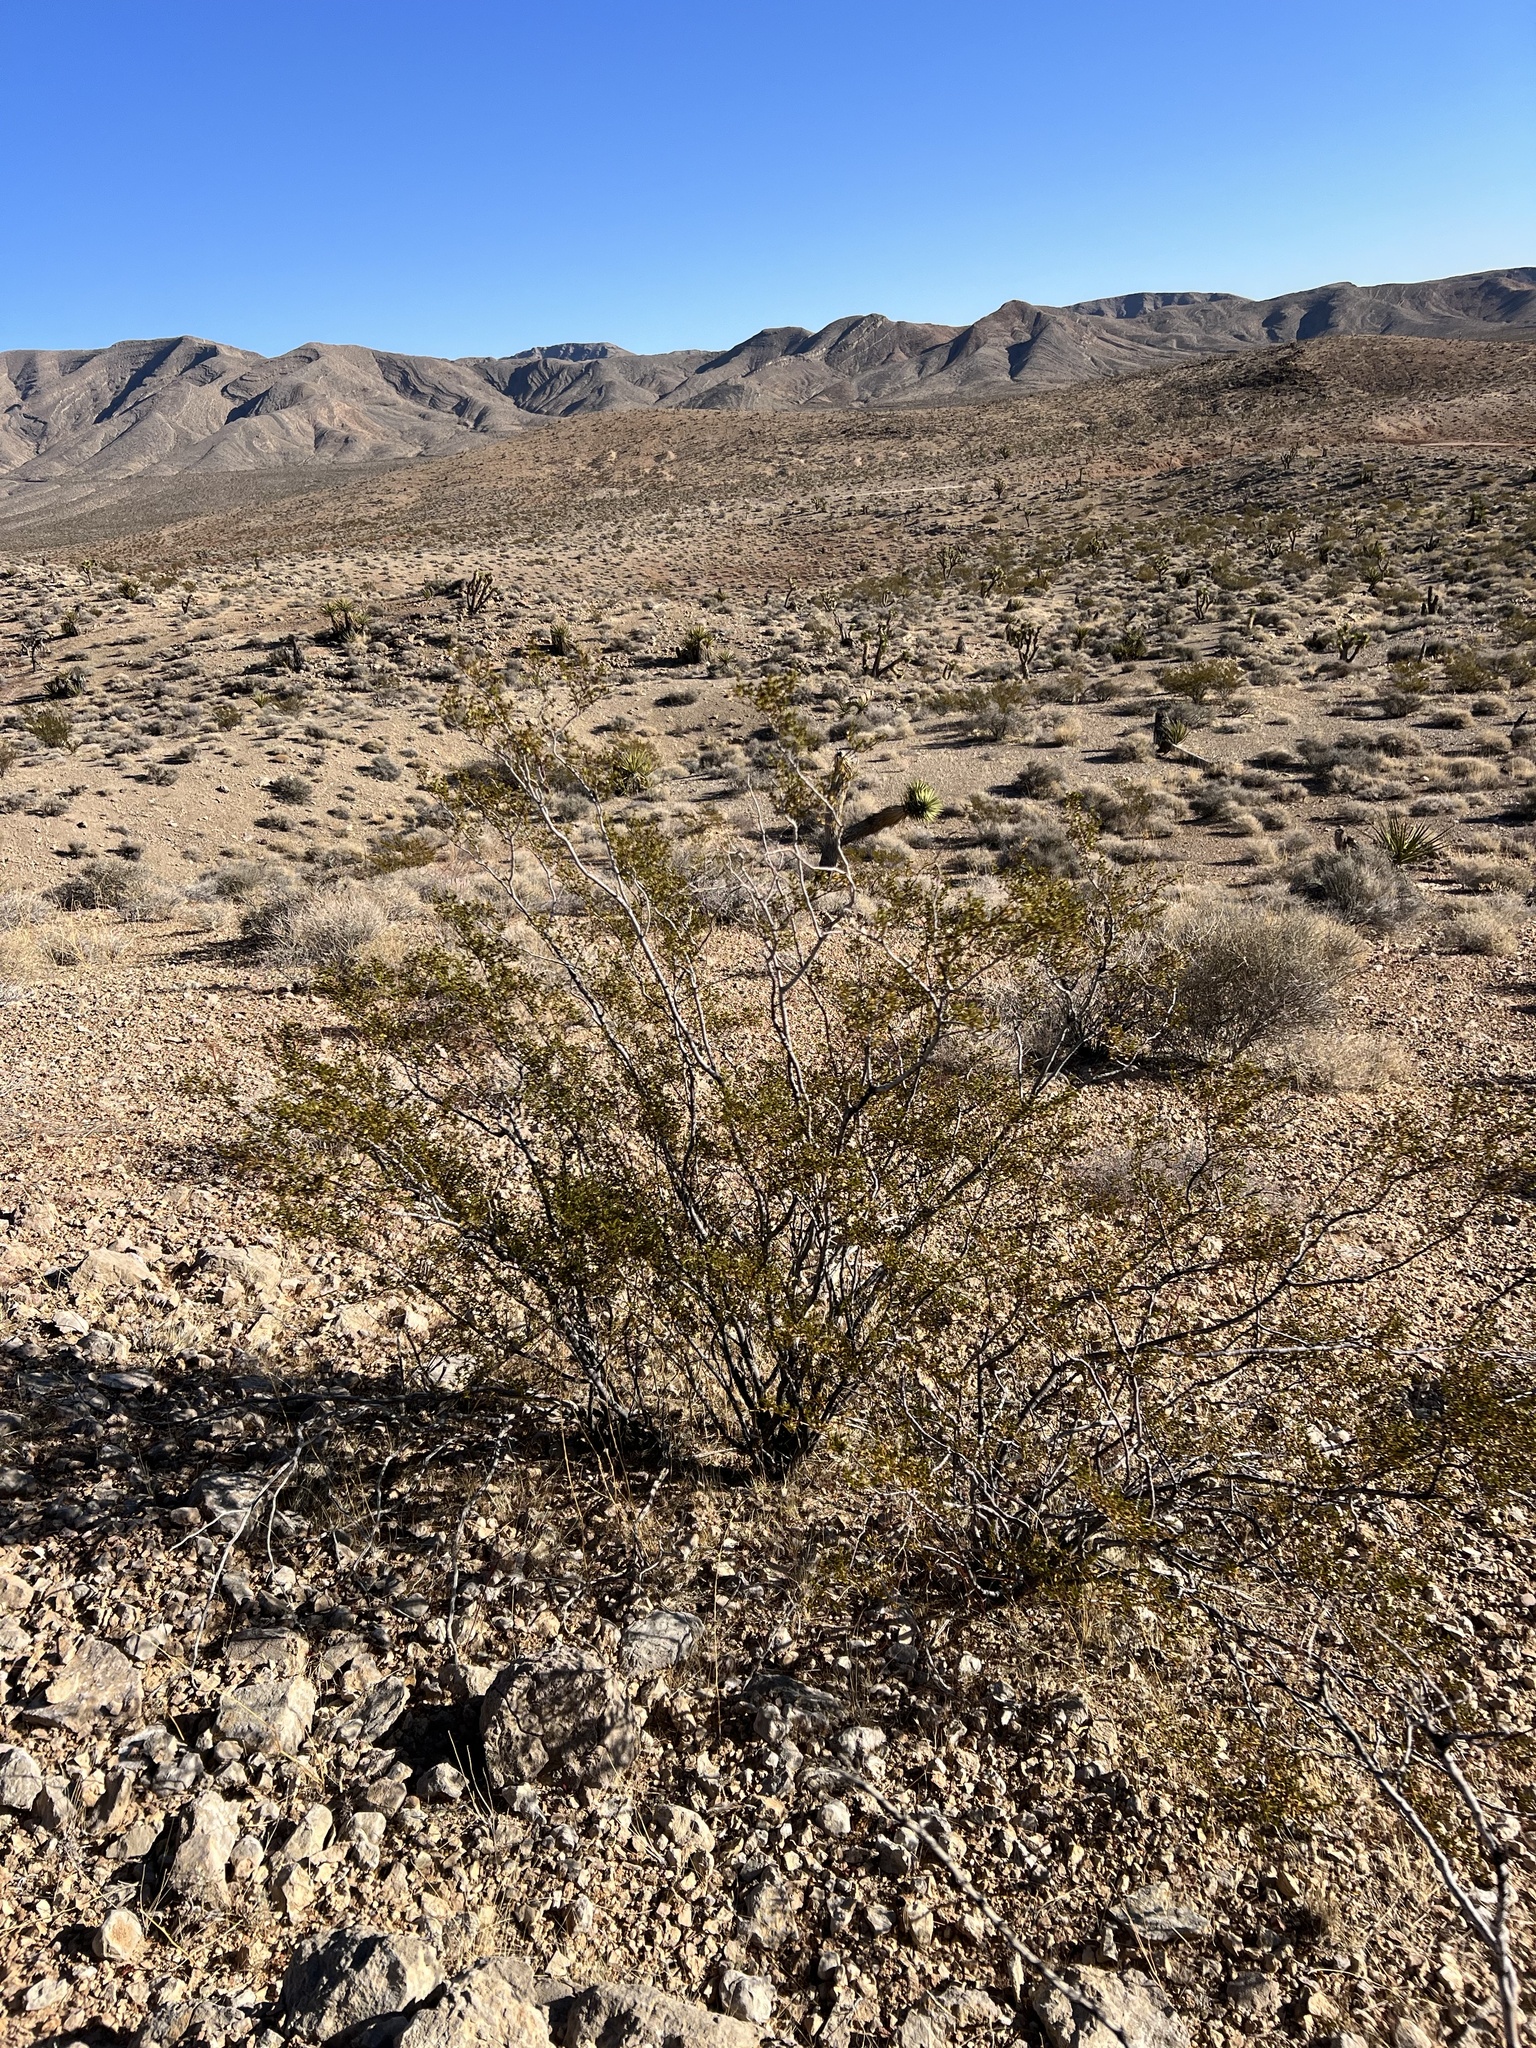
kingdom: Plantae
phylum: Tracheophyta
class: Magnoliopsida
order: Zygophyllales
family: Zygophyllaceae
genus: Larrea
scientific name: Larrea tridentata
